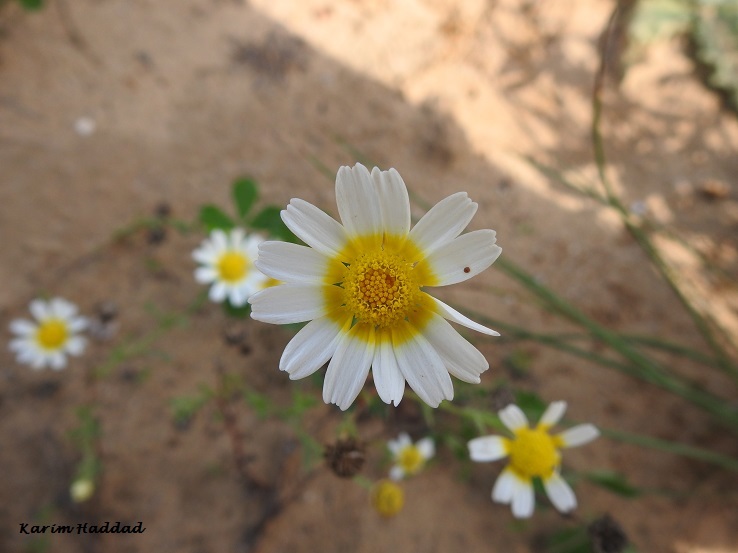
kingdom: Plantae
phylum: Tracheophyta
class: Magnoliopsida
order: Asterales
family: Asteraceae
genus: Cladanthus
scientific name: Cladanthus mixtus
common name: Weedy dogfennel
